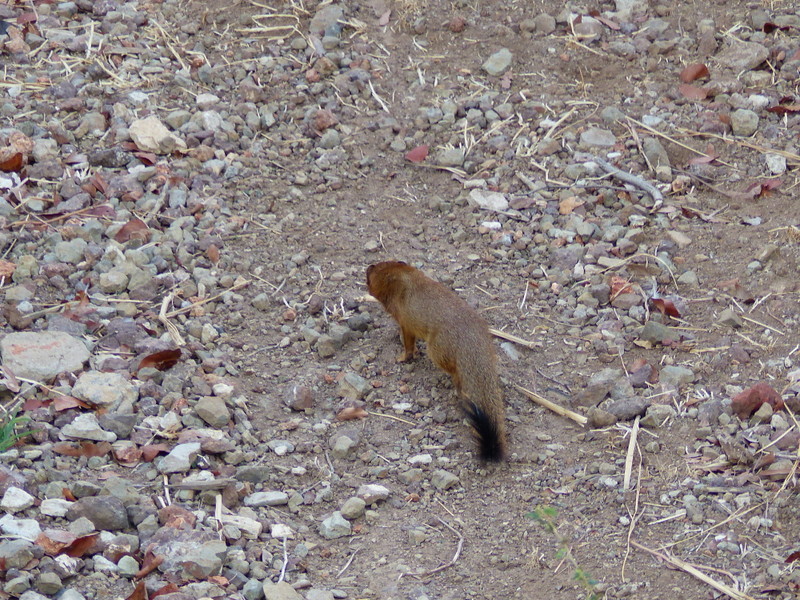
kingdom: Animalia
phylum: Chordata
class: Mammalia
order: Carnivora
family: Herpestidae
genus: Galerella
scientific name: Galerella sanguinea
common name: Slender mongoose
